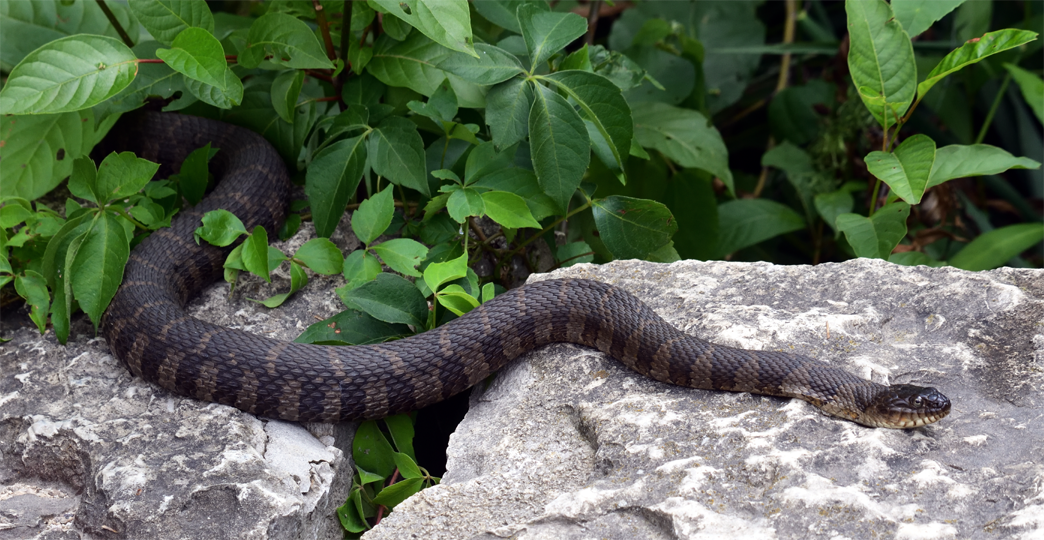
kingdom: Animalia
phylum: Chordata
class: Squamata
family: Colubridae
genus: Nerodia
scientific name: Nerodia sipedon
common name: Northern water snake
